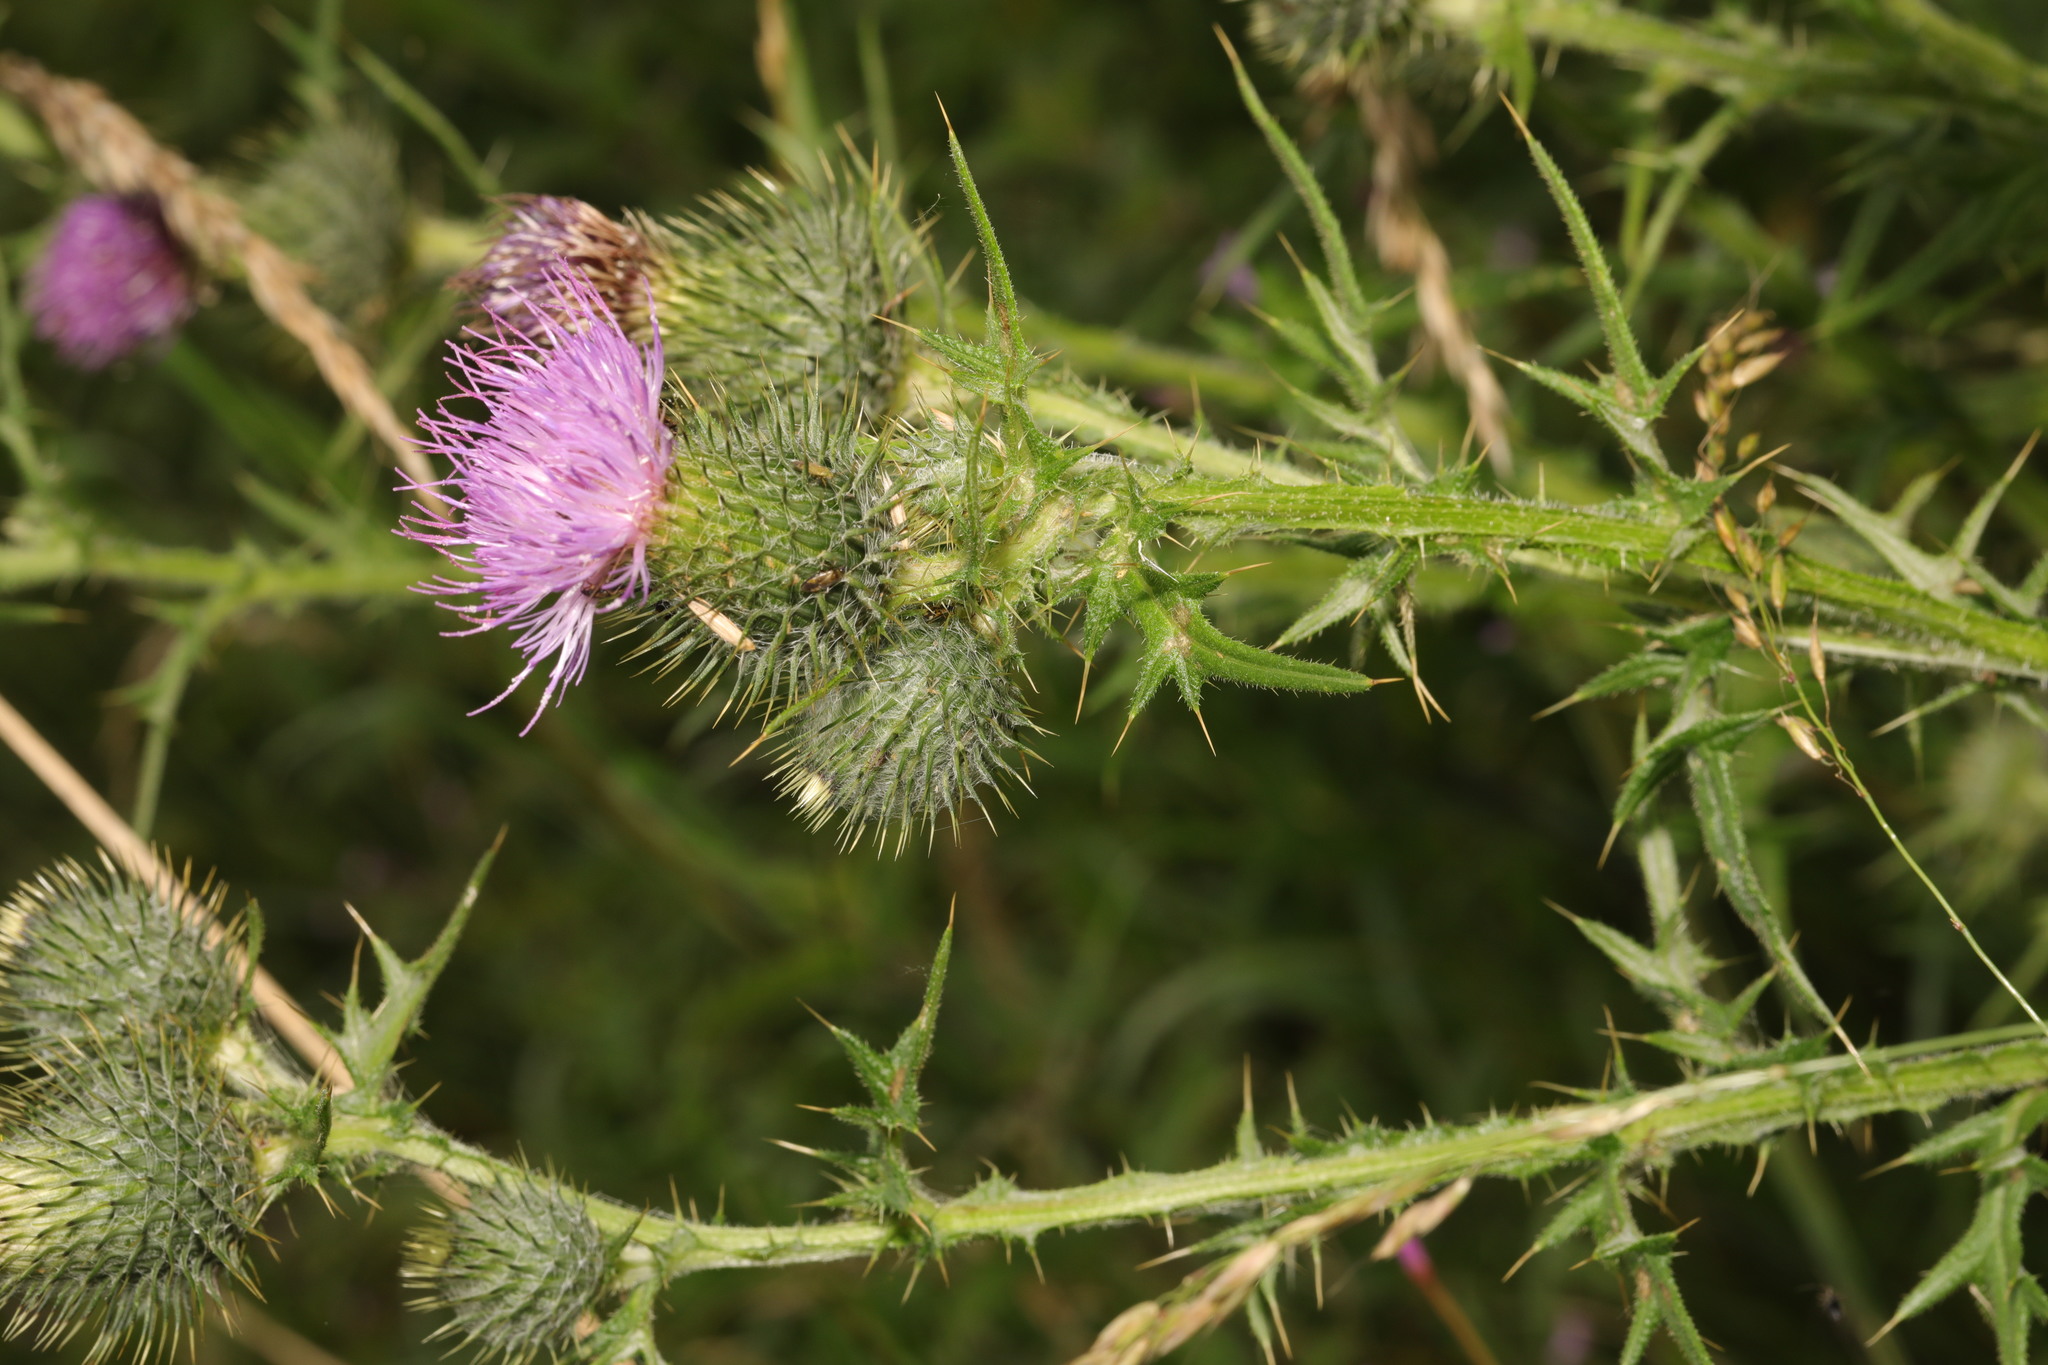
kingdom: Plantae
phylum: Tracheophyta
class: Magnoliopsida
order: Asterales
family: Asteraceae
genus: Cirsium
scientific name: Cirsium vulgare
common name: Bull thistle
